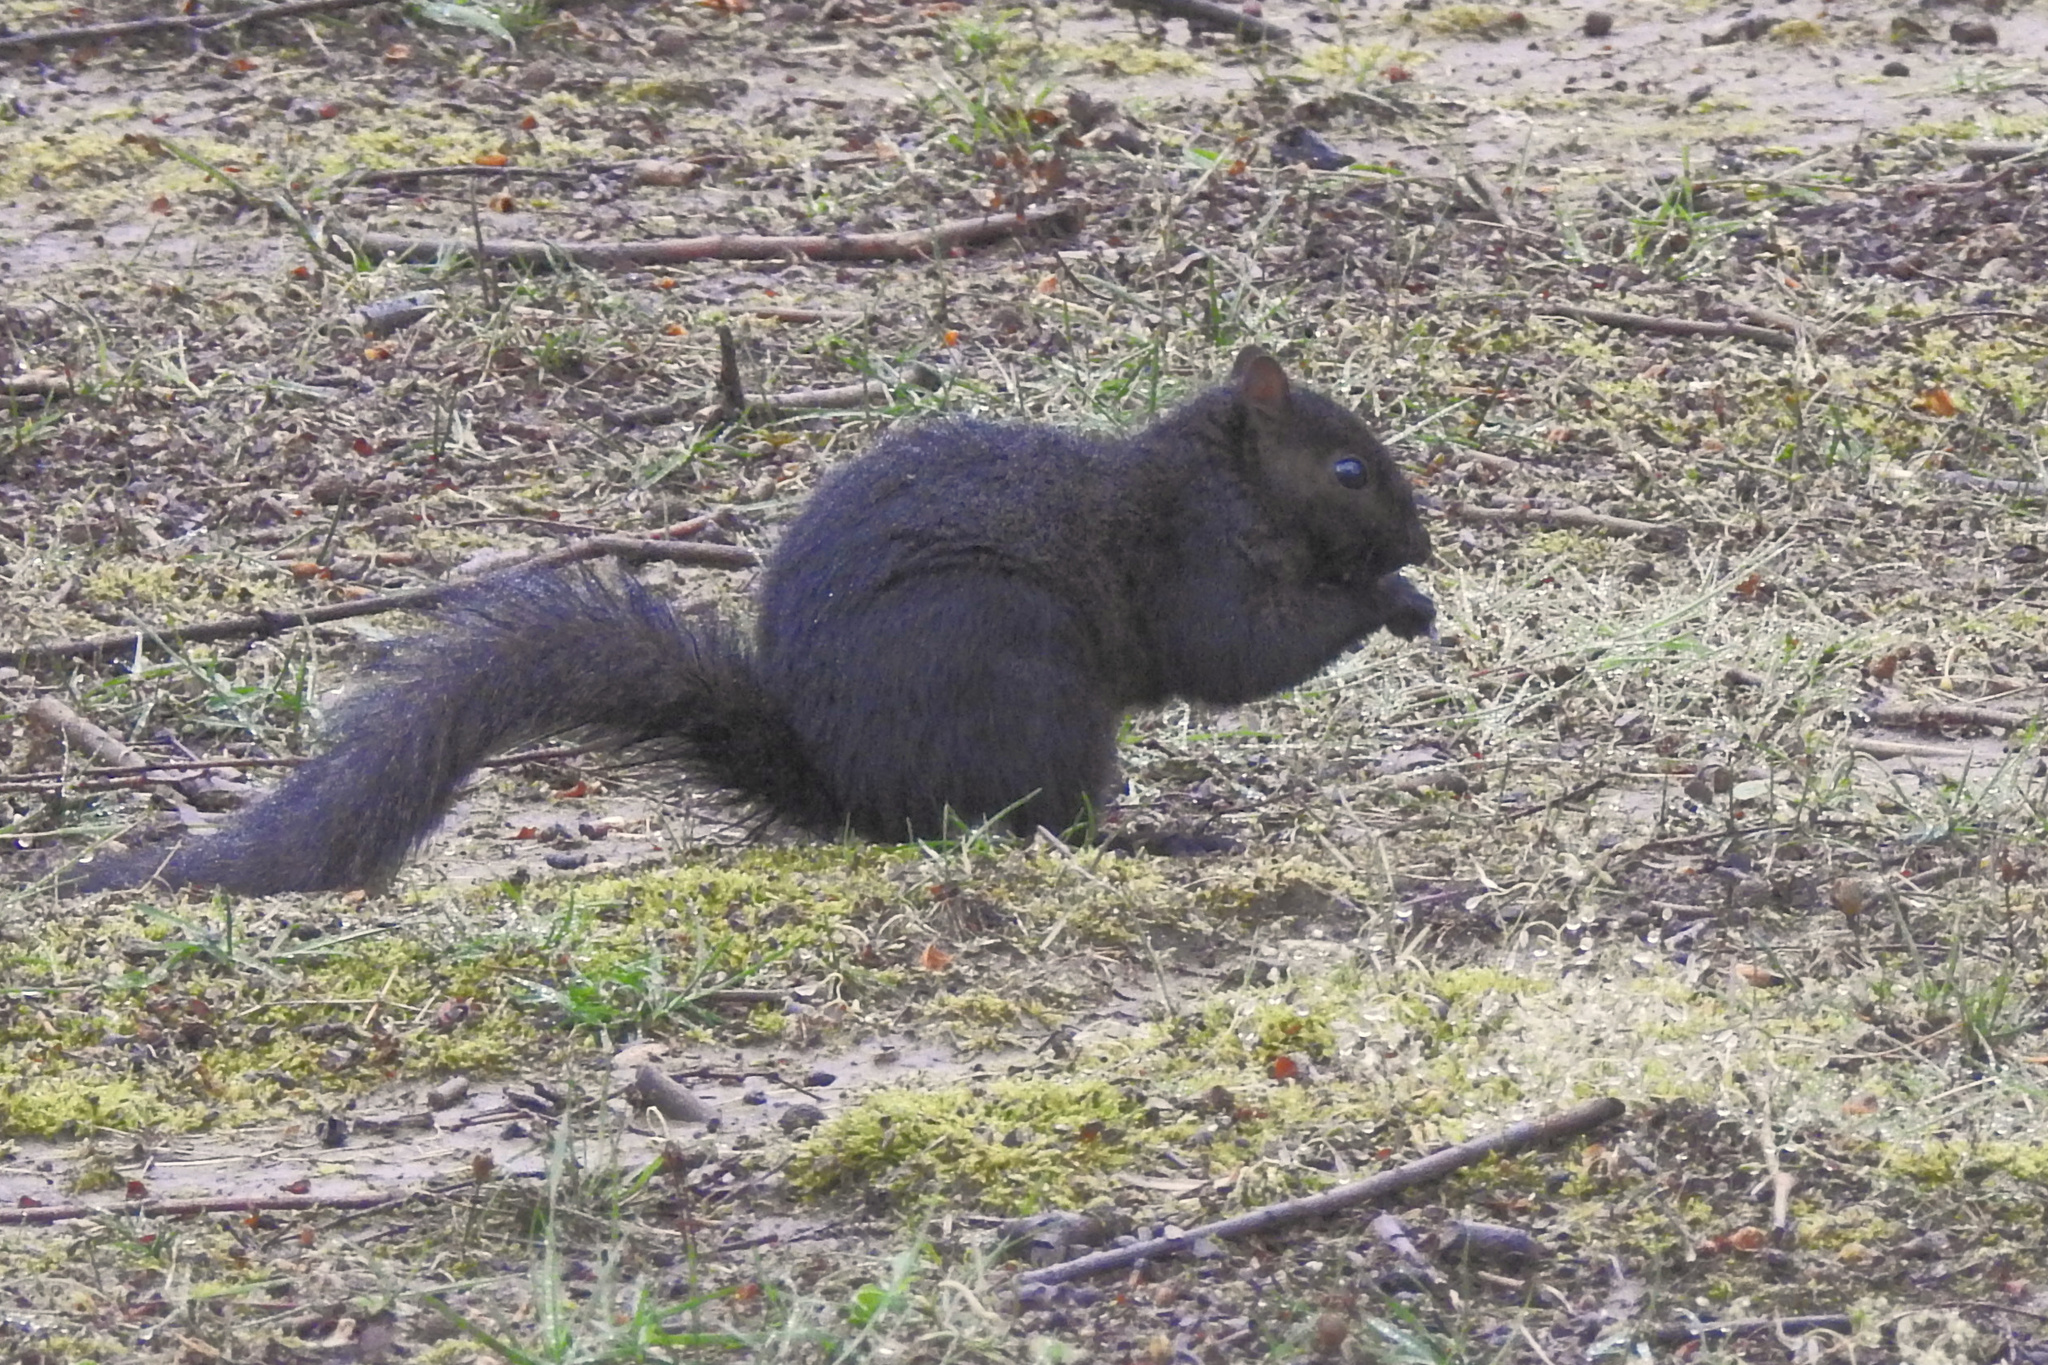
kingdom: Animalia
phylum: Chordata
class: Mammalia
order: Rodentia
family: Sciuridae
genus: Sciurus
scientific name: Sciurus carolinensis
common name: Eastern gray squirrel
